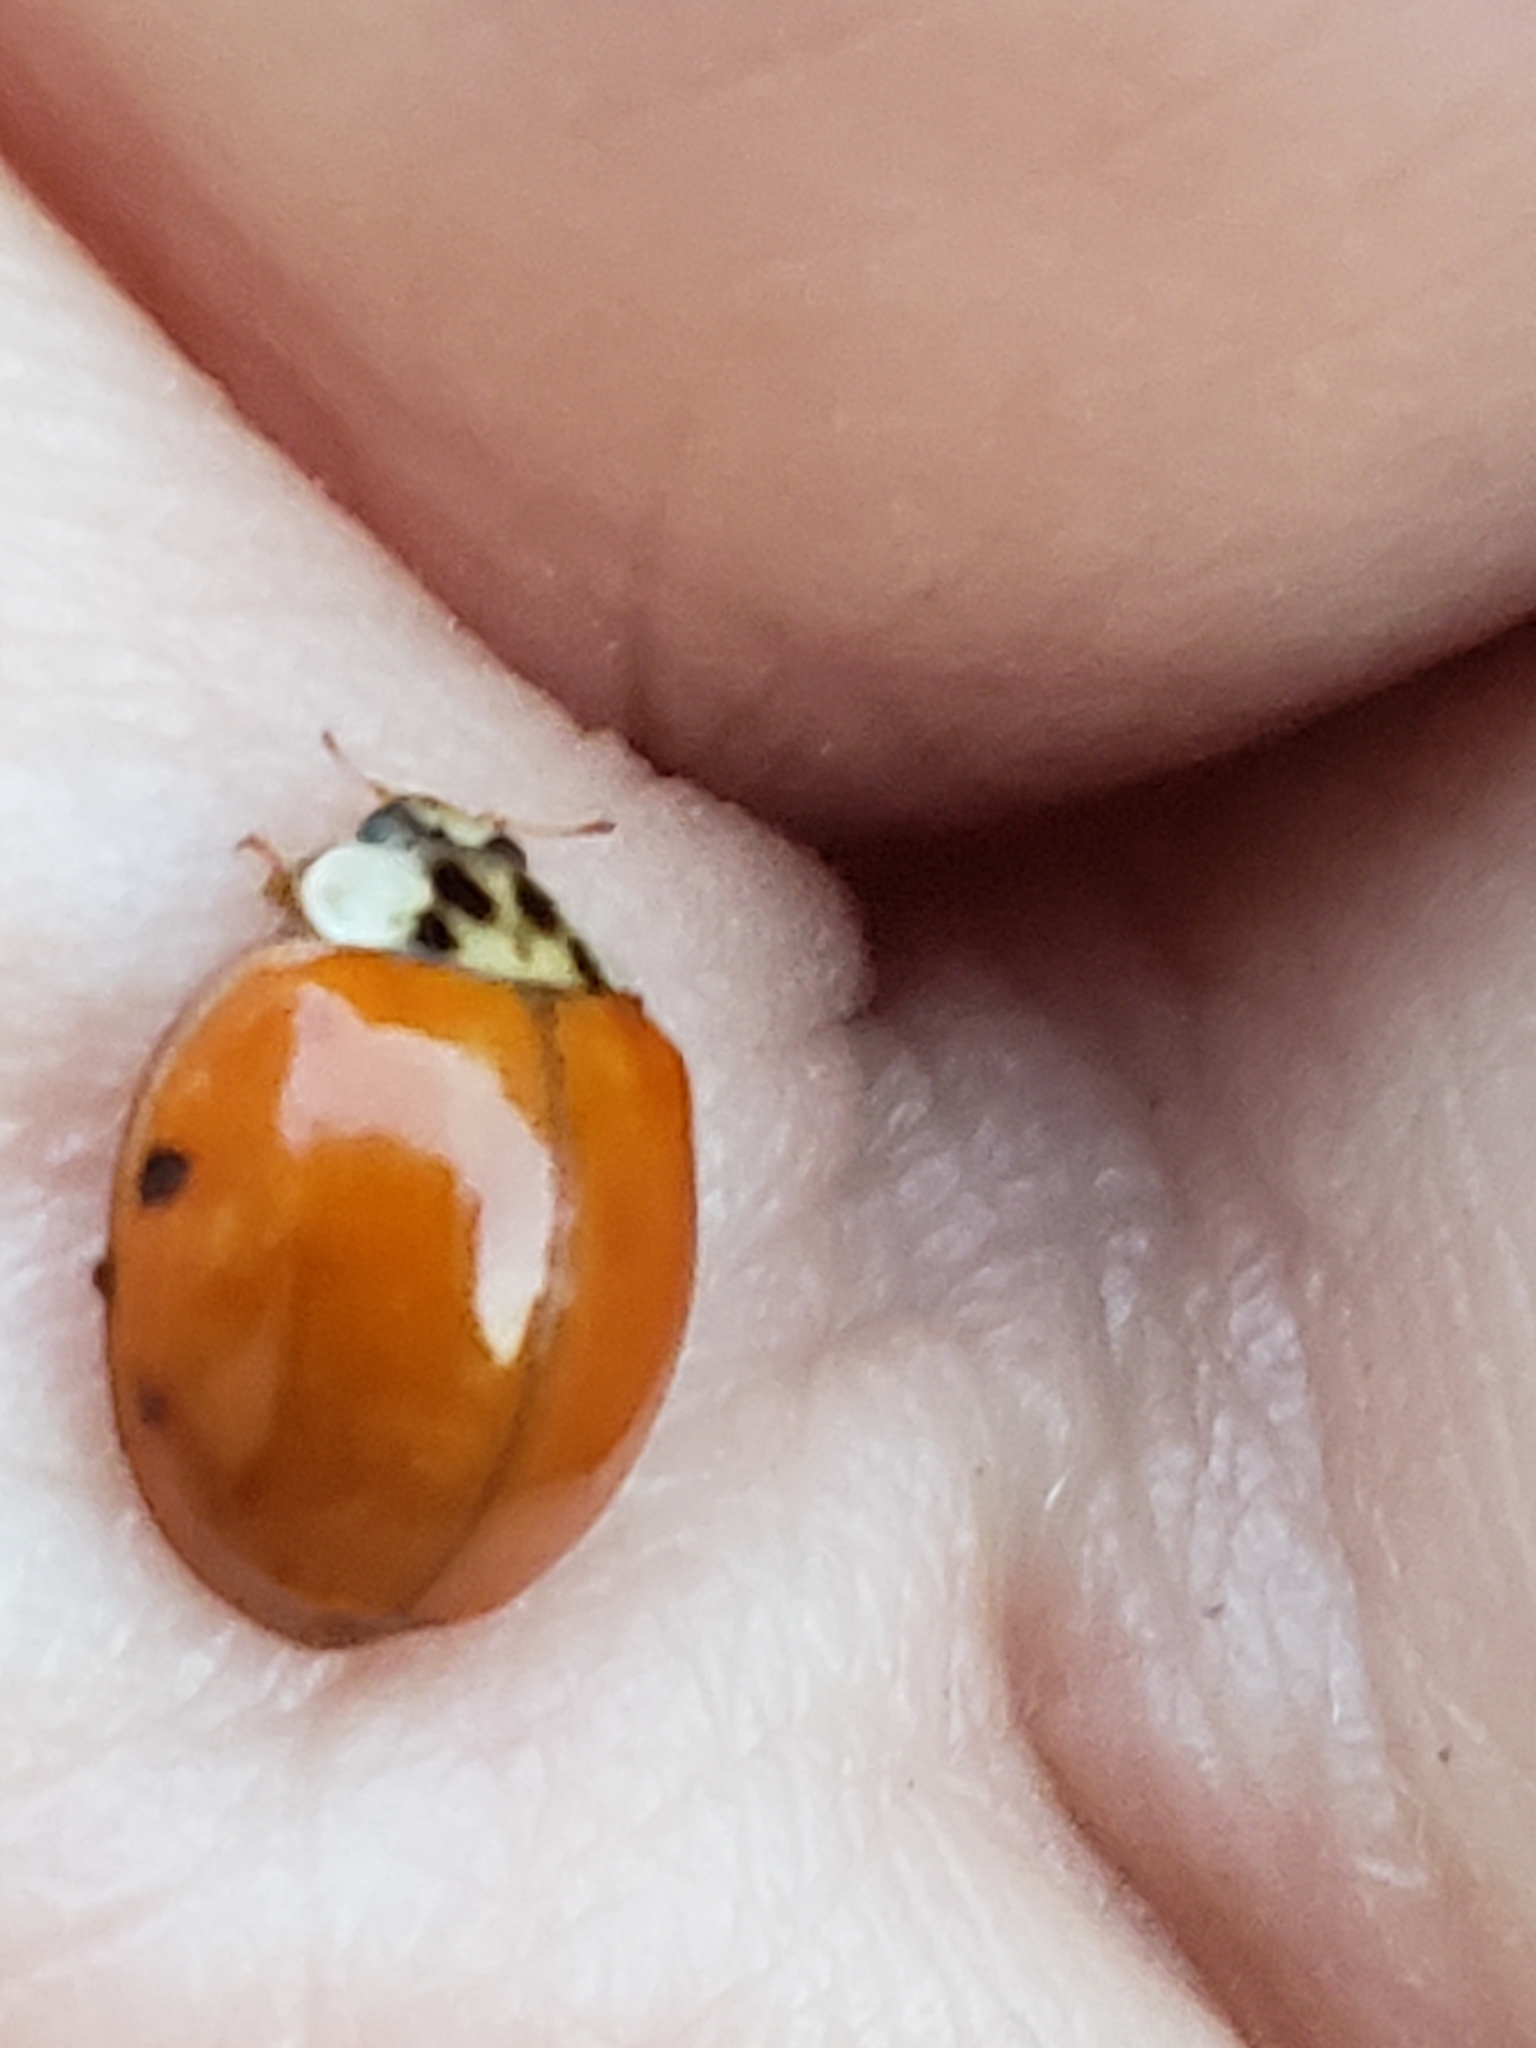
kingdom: Animalia
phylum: Arthropoda
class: Insecta
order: Coleoptera
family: Coccinellidae
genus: Harmonia
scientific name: Harmonia axyridis
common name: Harlequin ladybird
